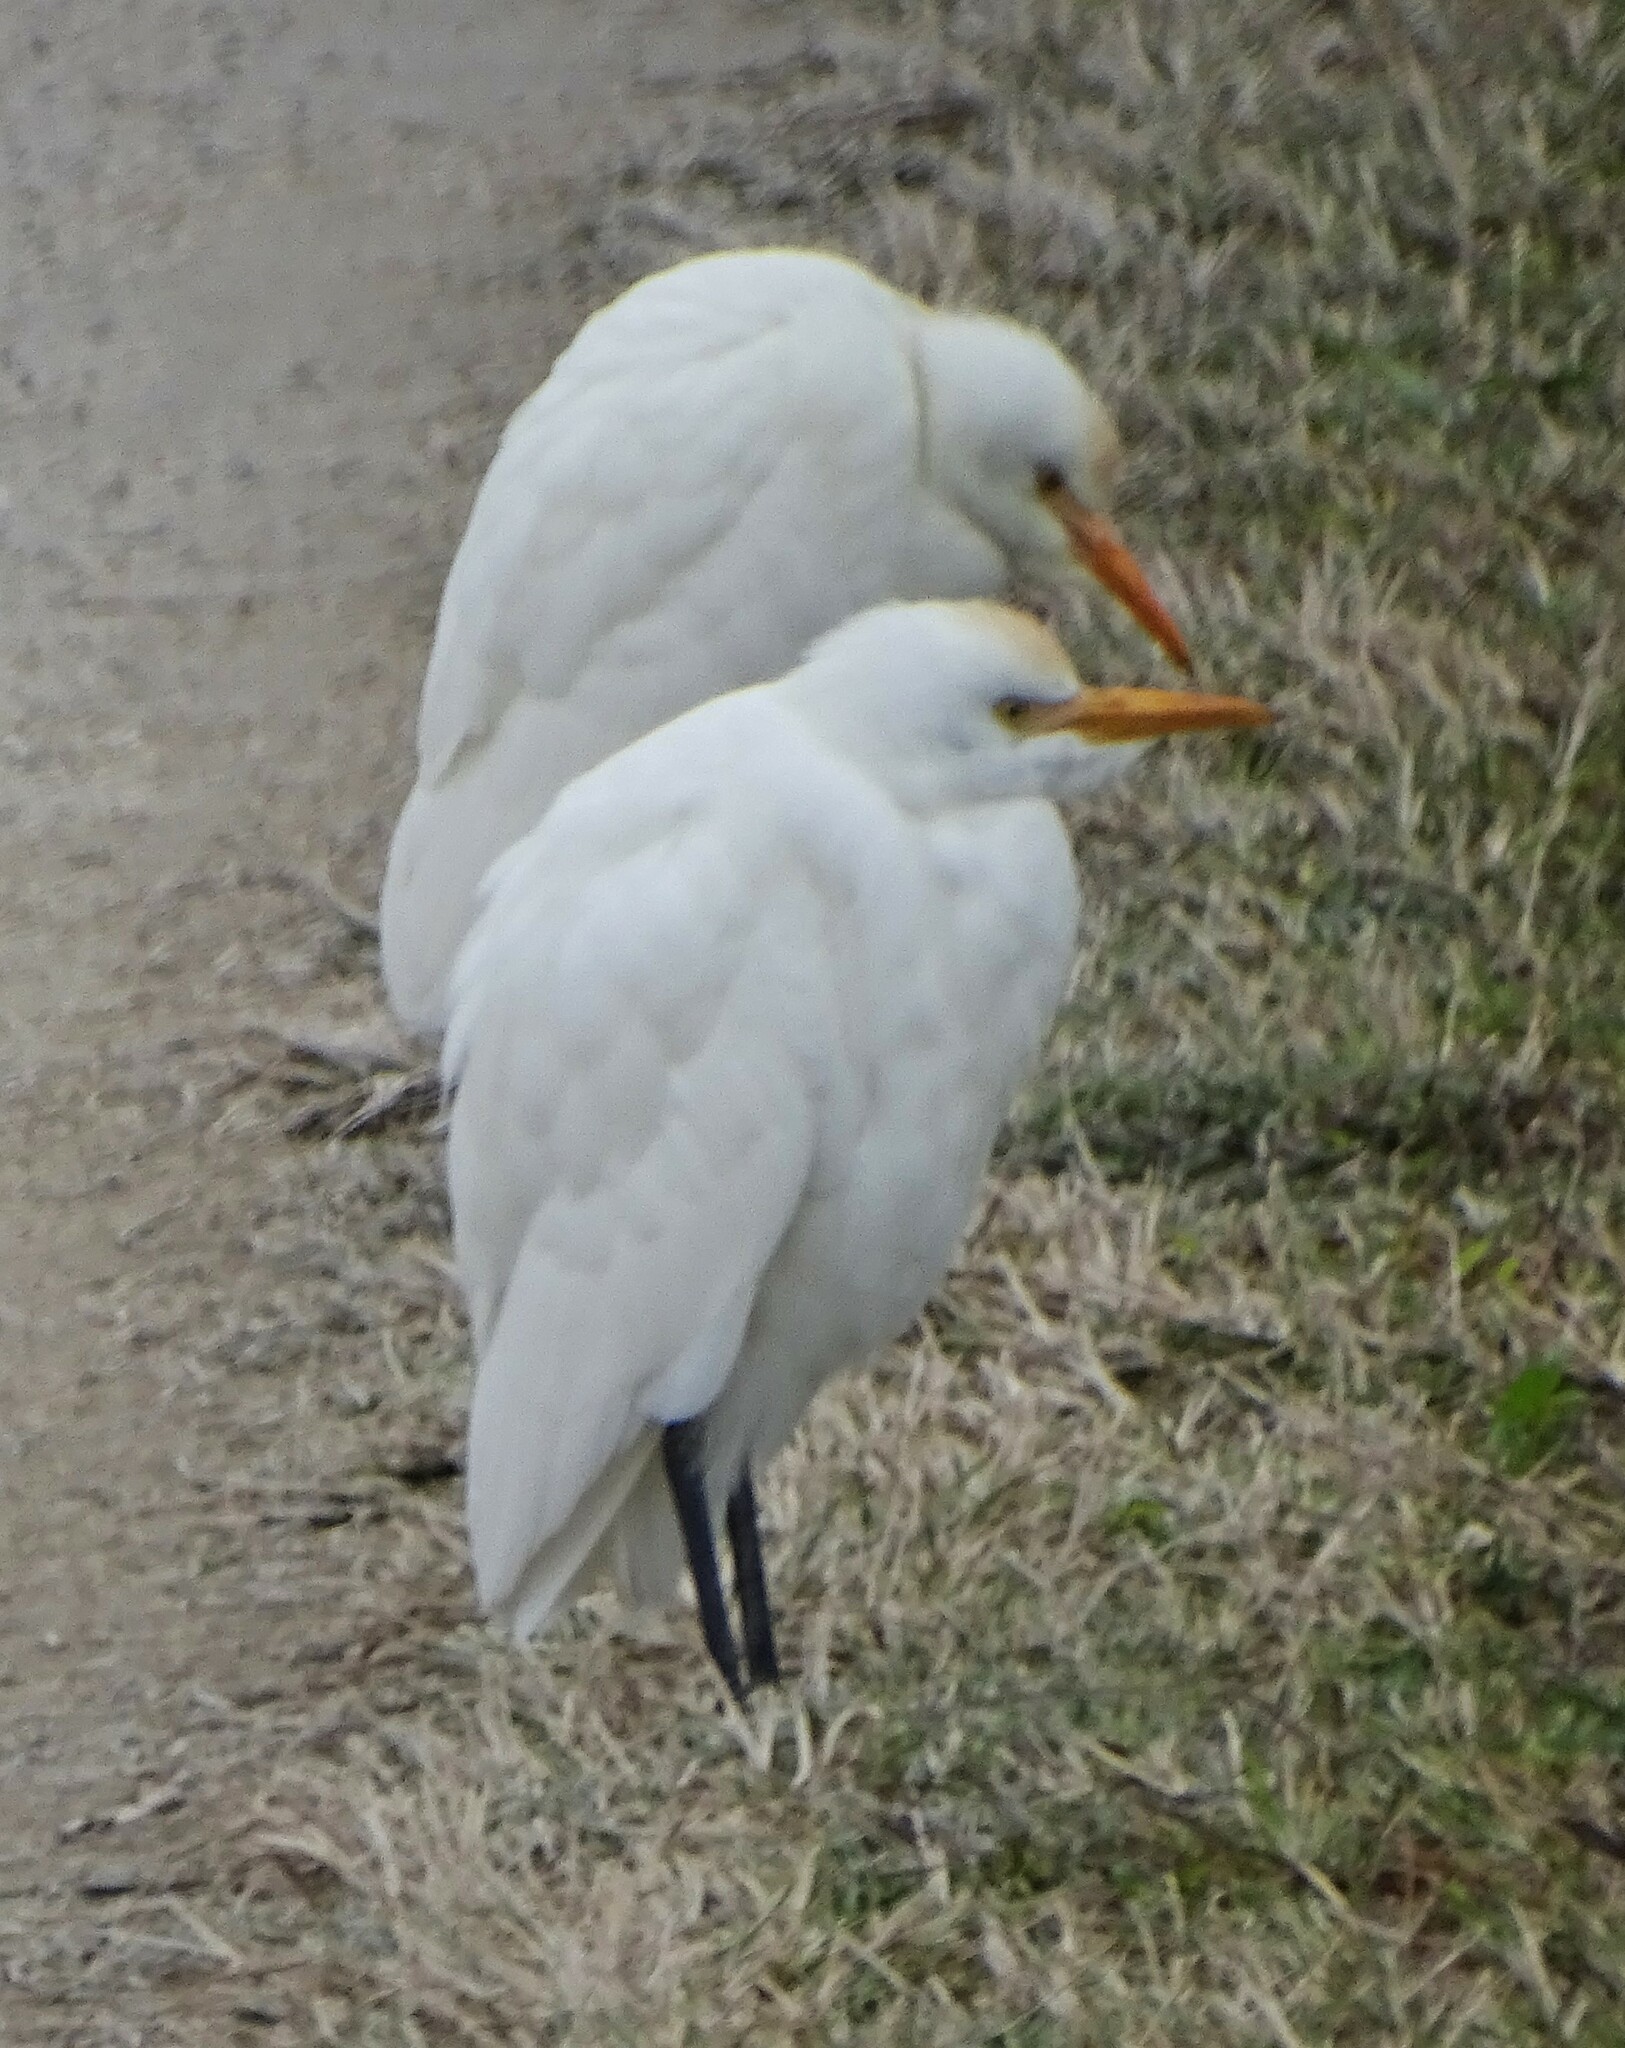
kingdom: Animalia
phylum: Chordata
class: Aves
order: Pelecaniformes
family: Ardeidae
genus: Bubulcus
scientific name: Bubulcus ibis
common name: Cattle egret
